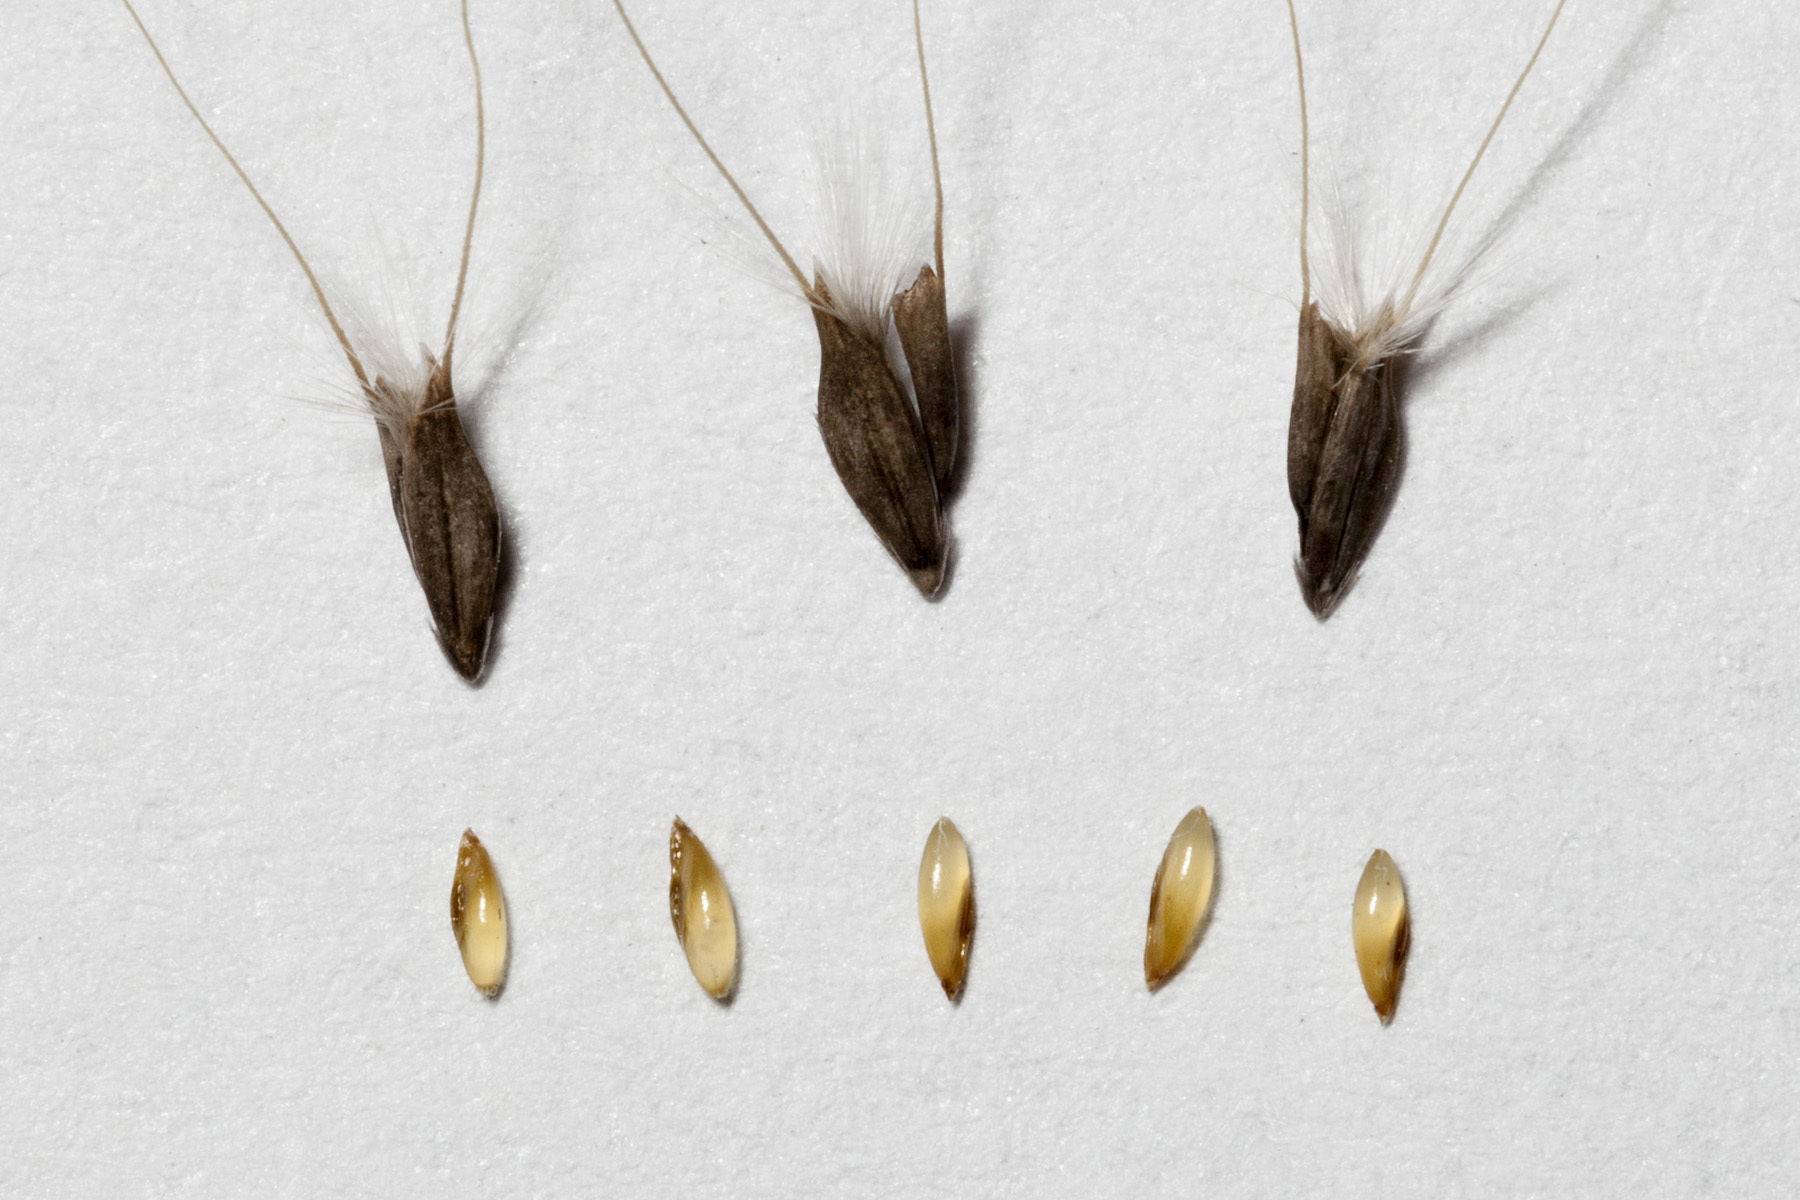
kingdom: Plantae
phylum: Tracheophyta
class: Liliopsida
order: Poales
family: Poaceae
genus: Chloris
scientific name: Chloris virgata
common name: Feathery rhodes-grass
